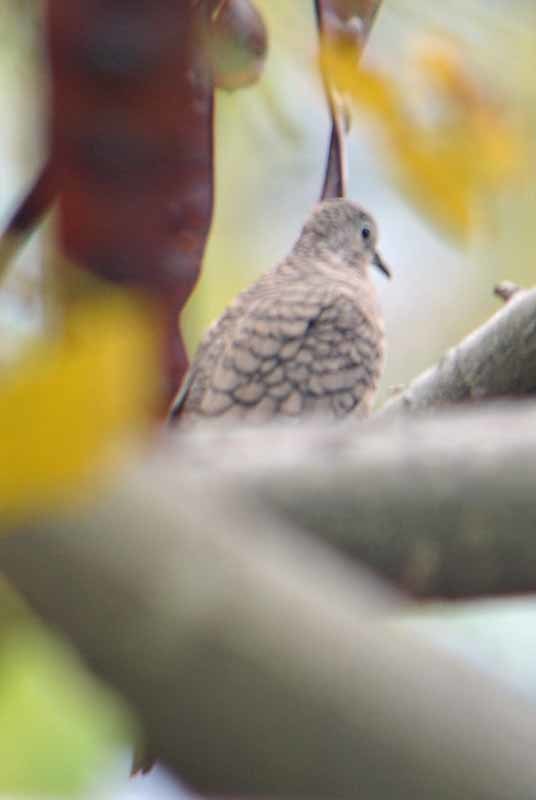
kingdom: Animalia
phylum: Chordata
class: Aves
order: Columbiformes
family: Columbidae
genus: Columbina
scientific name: Columbina inca
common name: Inca dove
